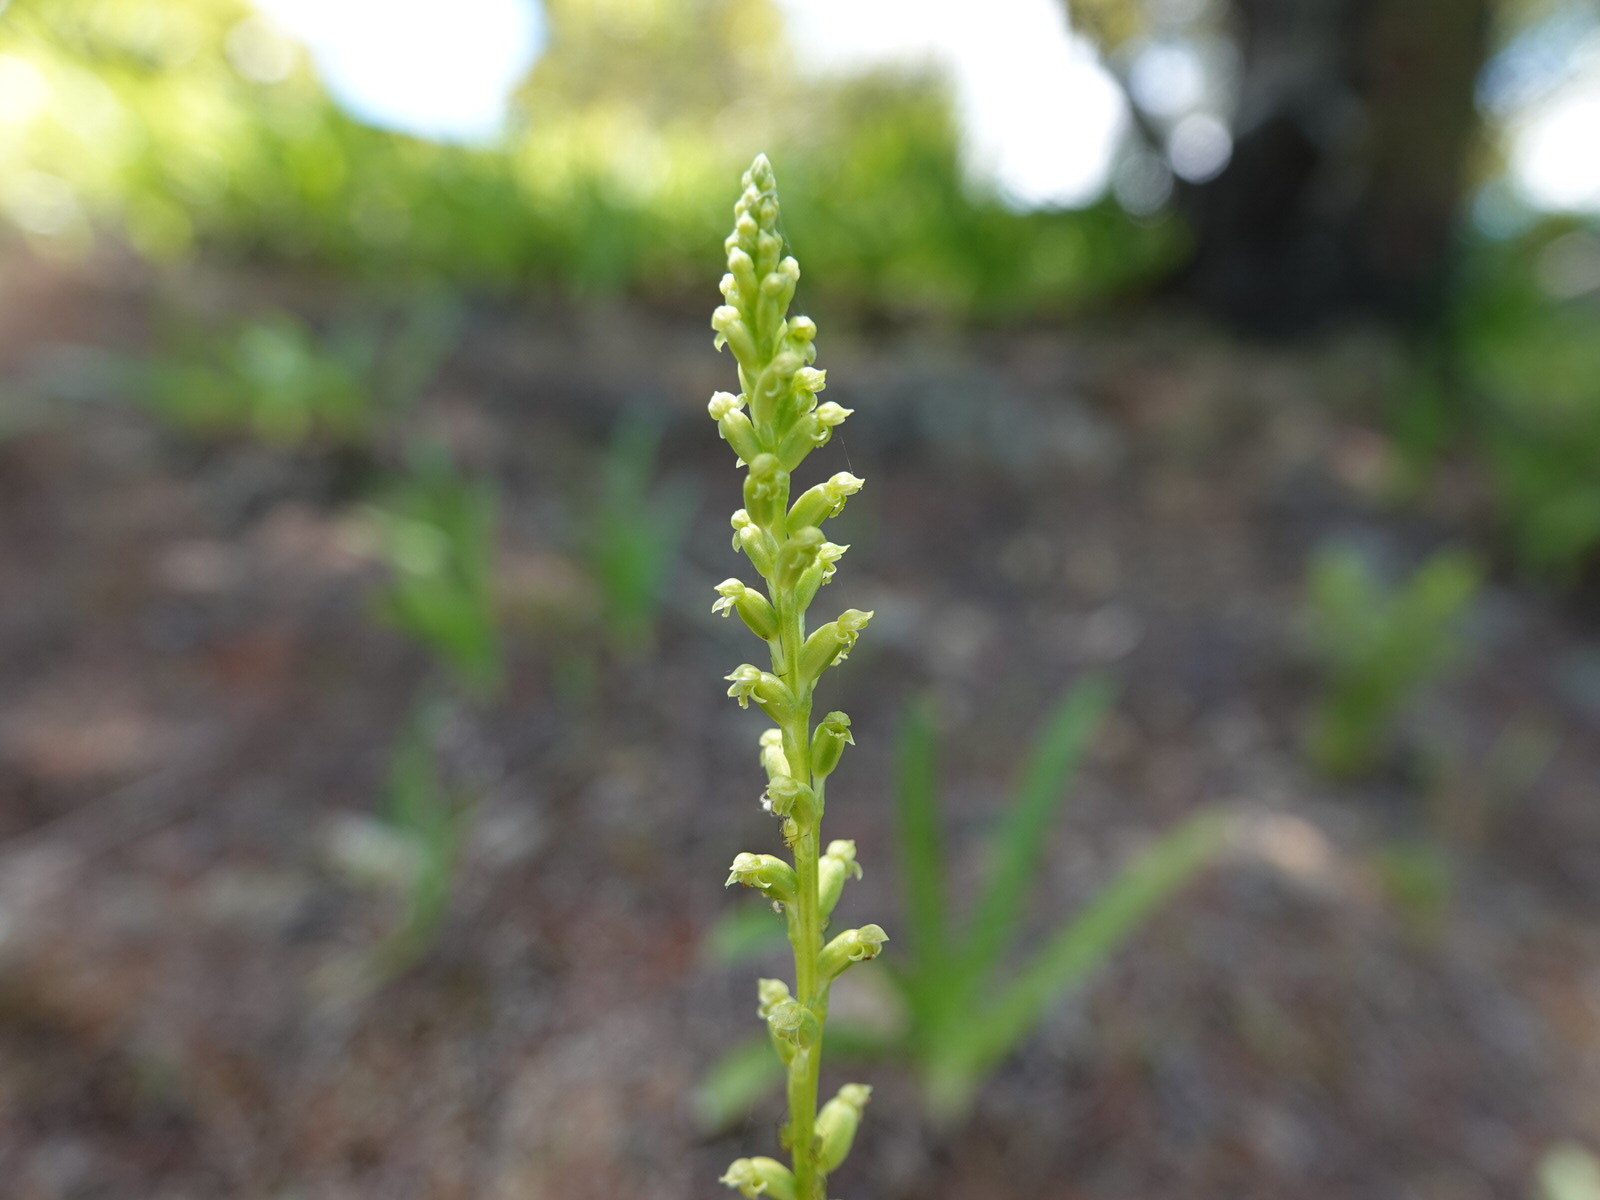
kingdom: Plantae
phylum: Tracheophyta
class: Liliopsida
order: Asparagales
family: Orchidaceae
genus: Microtis
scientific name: Microtis unifolia
